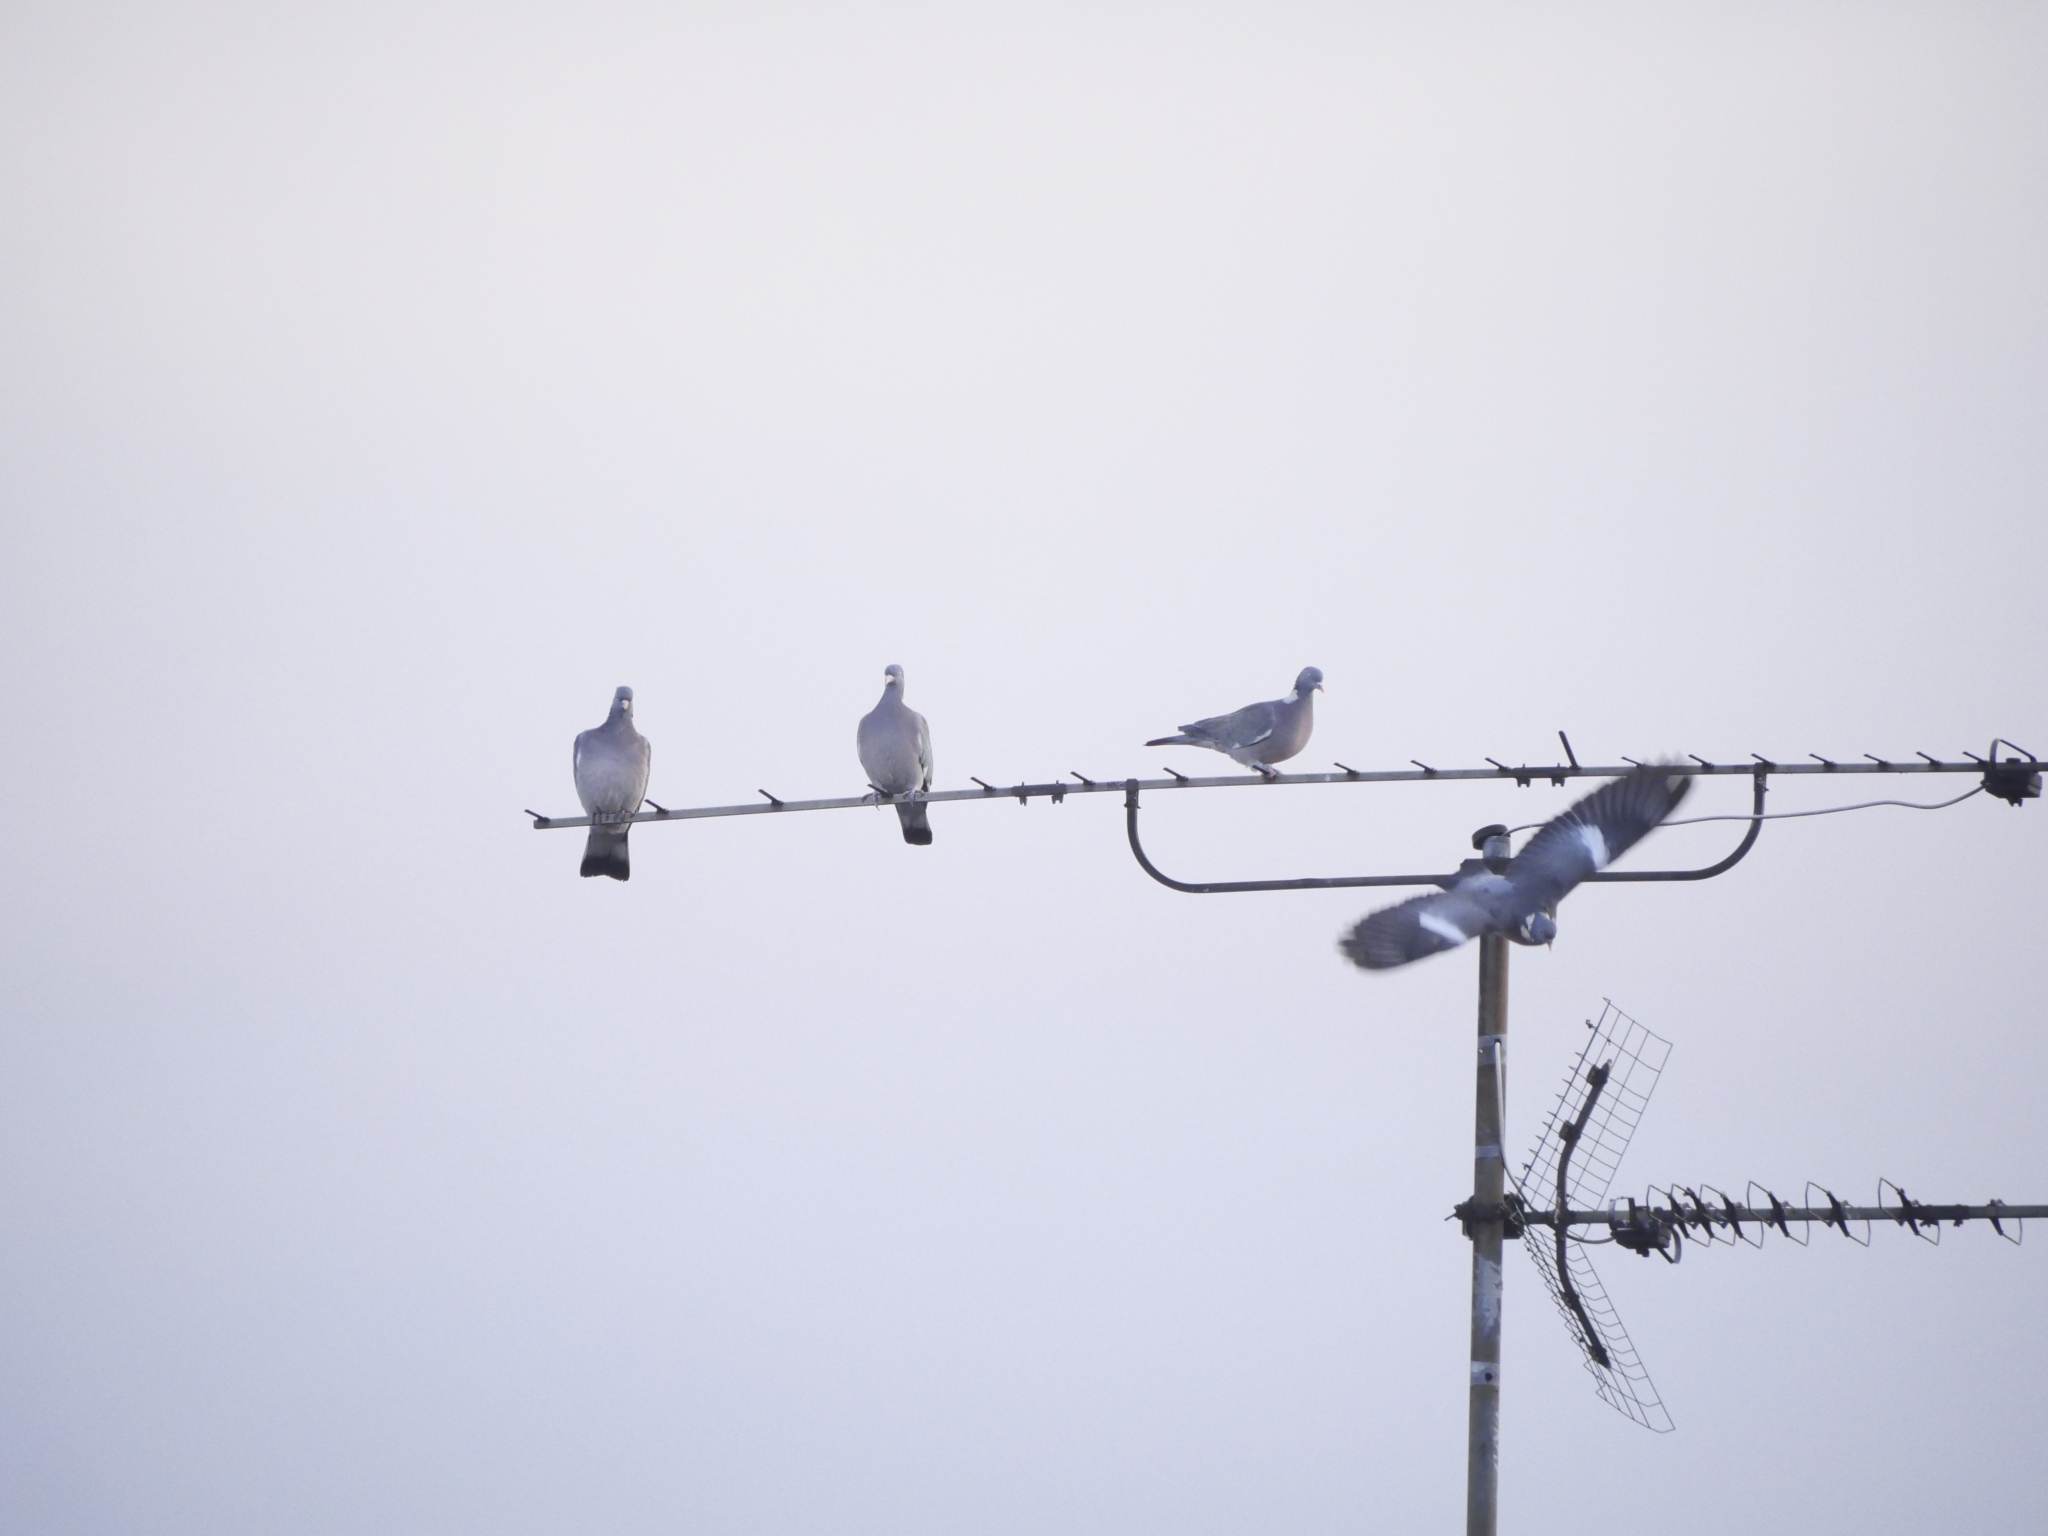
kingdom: Animalia
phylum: Chordata
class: Aves
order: Columbiformes
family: Columbidae
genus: Columba
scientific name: Columba palumbus
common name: Common wood pigeon
